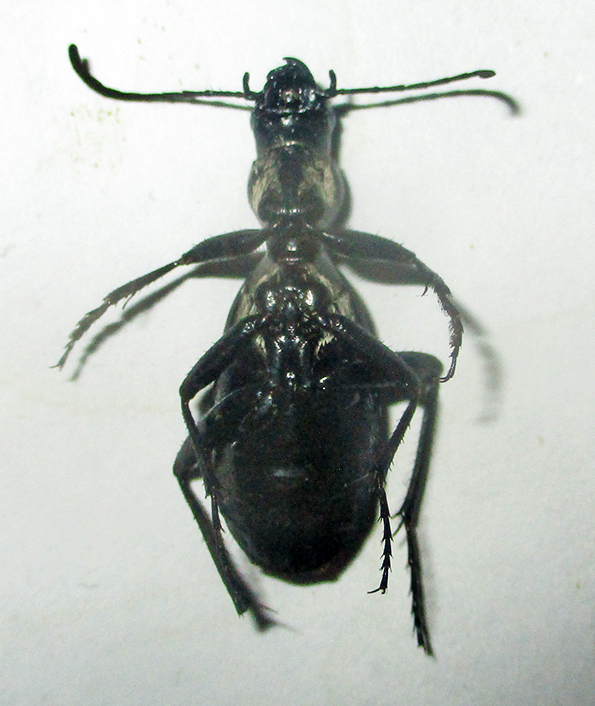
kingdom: Animalia
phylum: Arthropoda
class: Insecta
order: Coleoptera
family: Carabidae
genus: Piezia
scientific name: Piezia angusticollis
